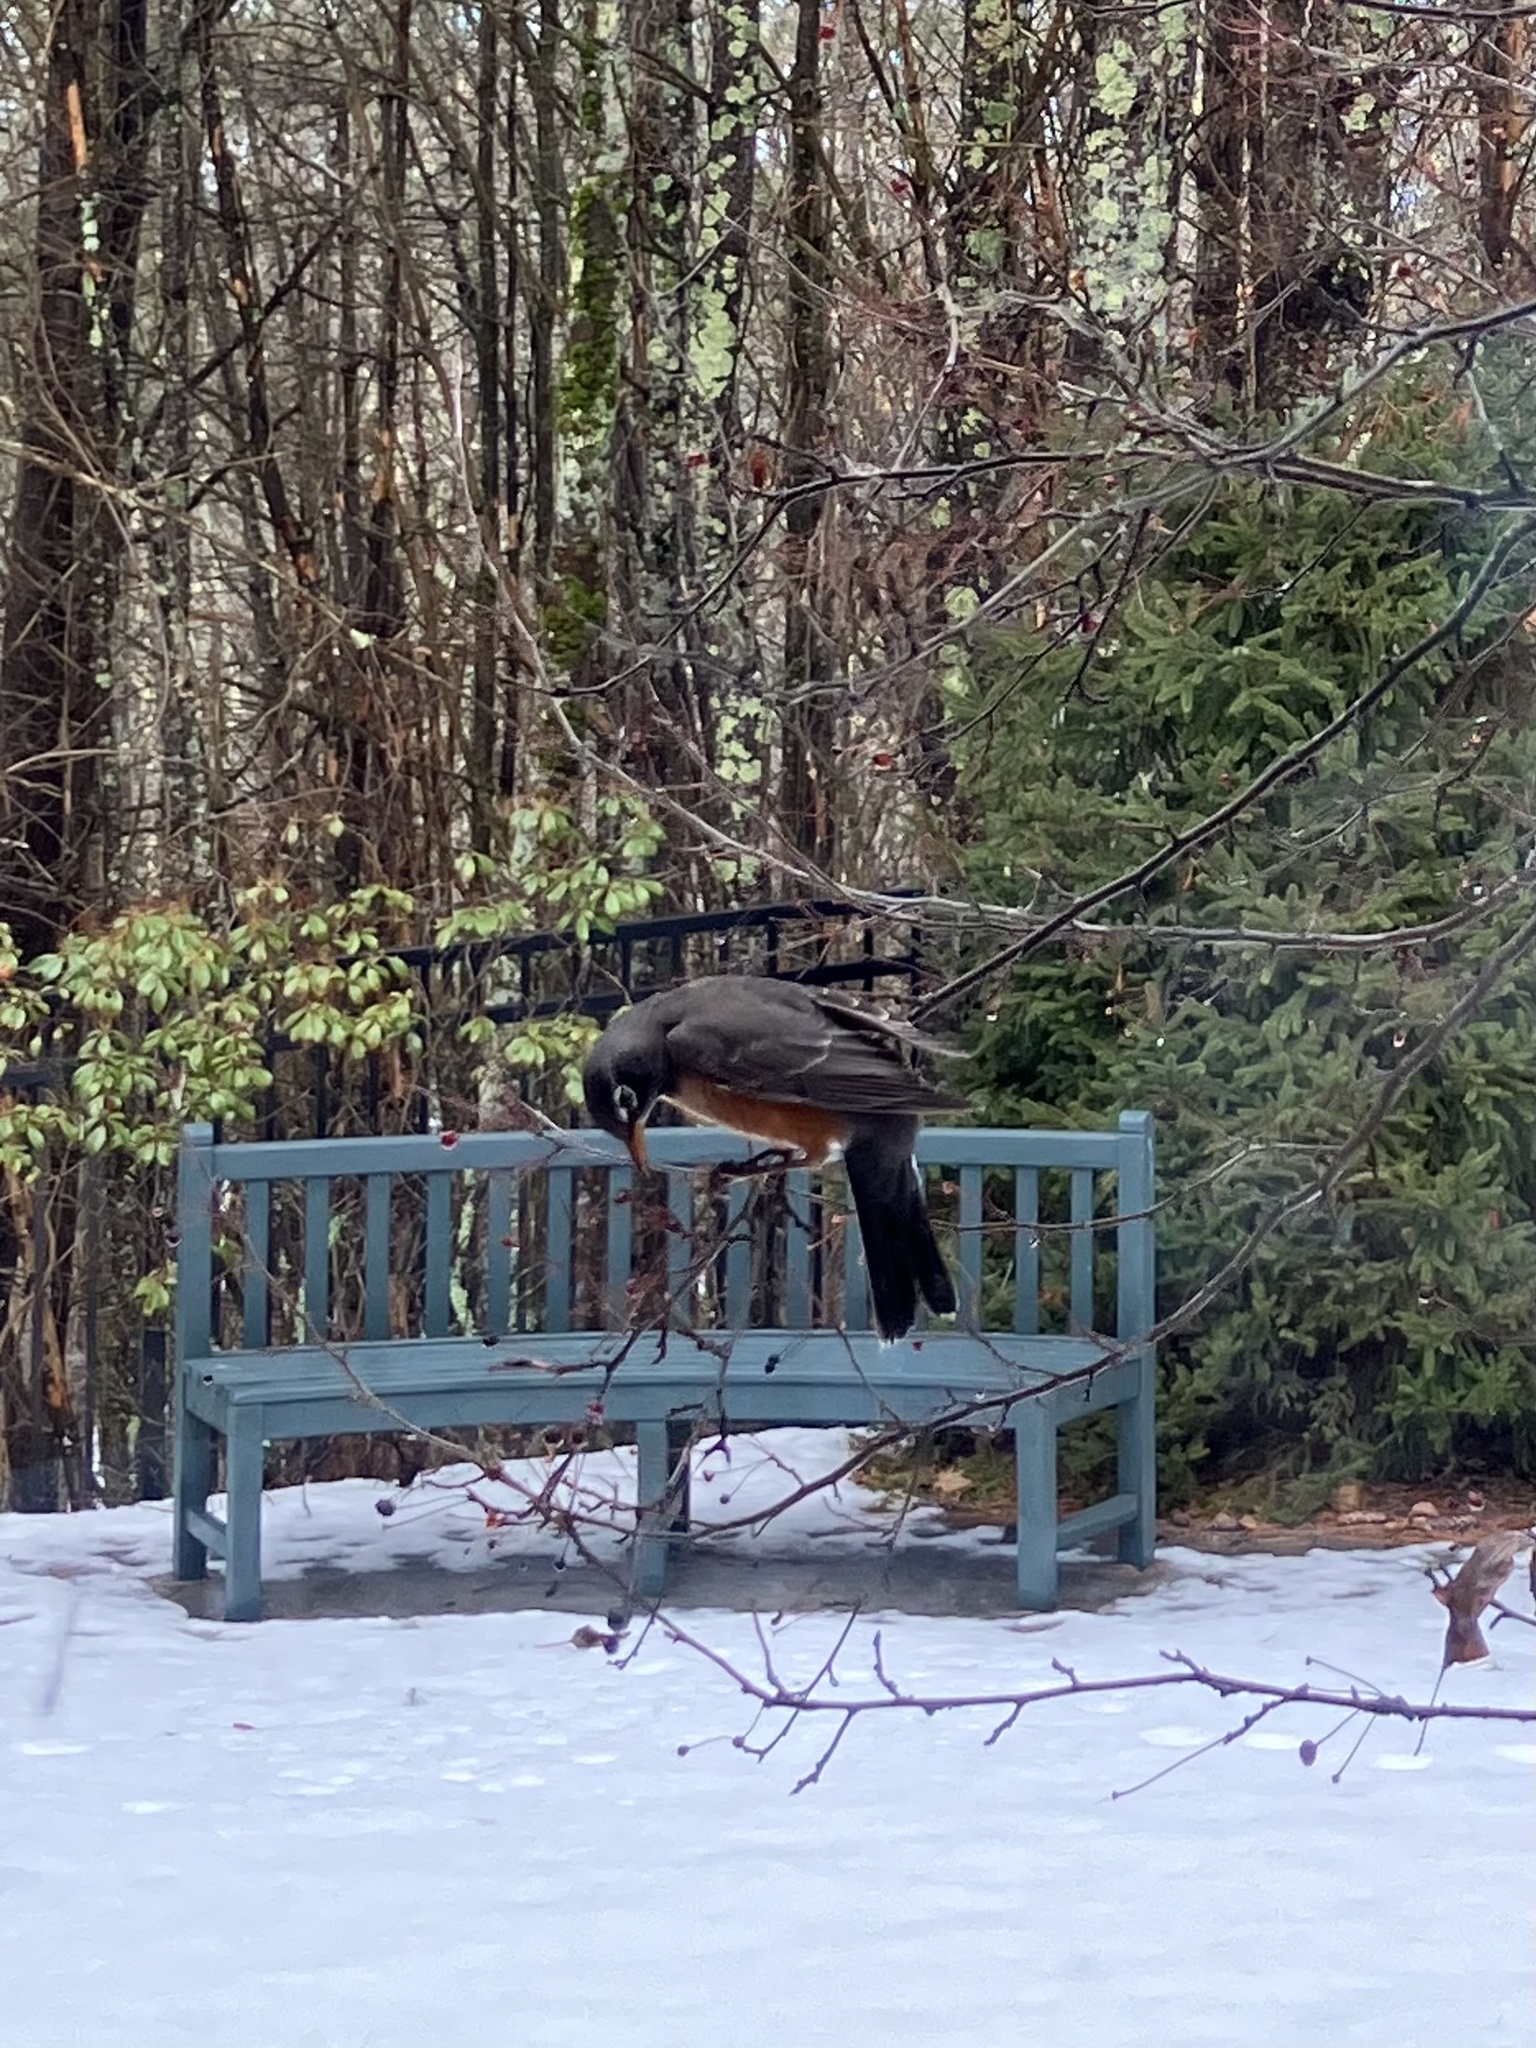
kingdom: Animalia
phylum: Chordata
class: Aves
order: Passeriformes
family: Turdidae
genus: Turdus
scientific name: Turdus migratorius
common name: American robin
